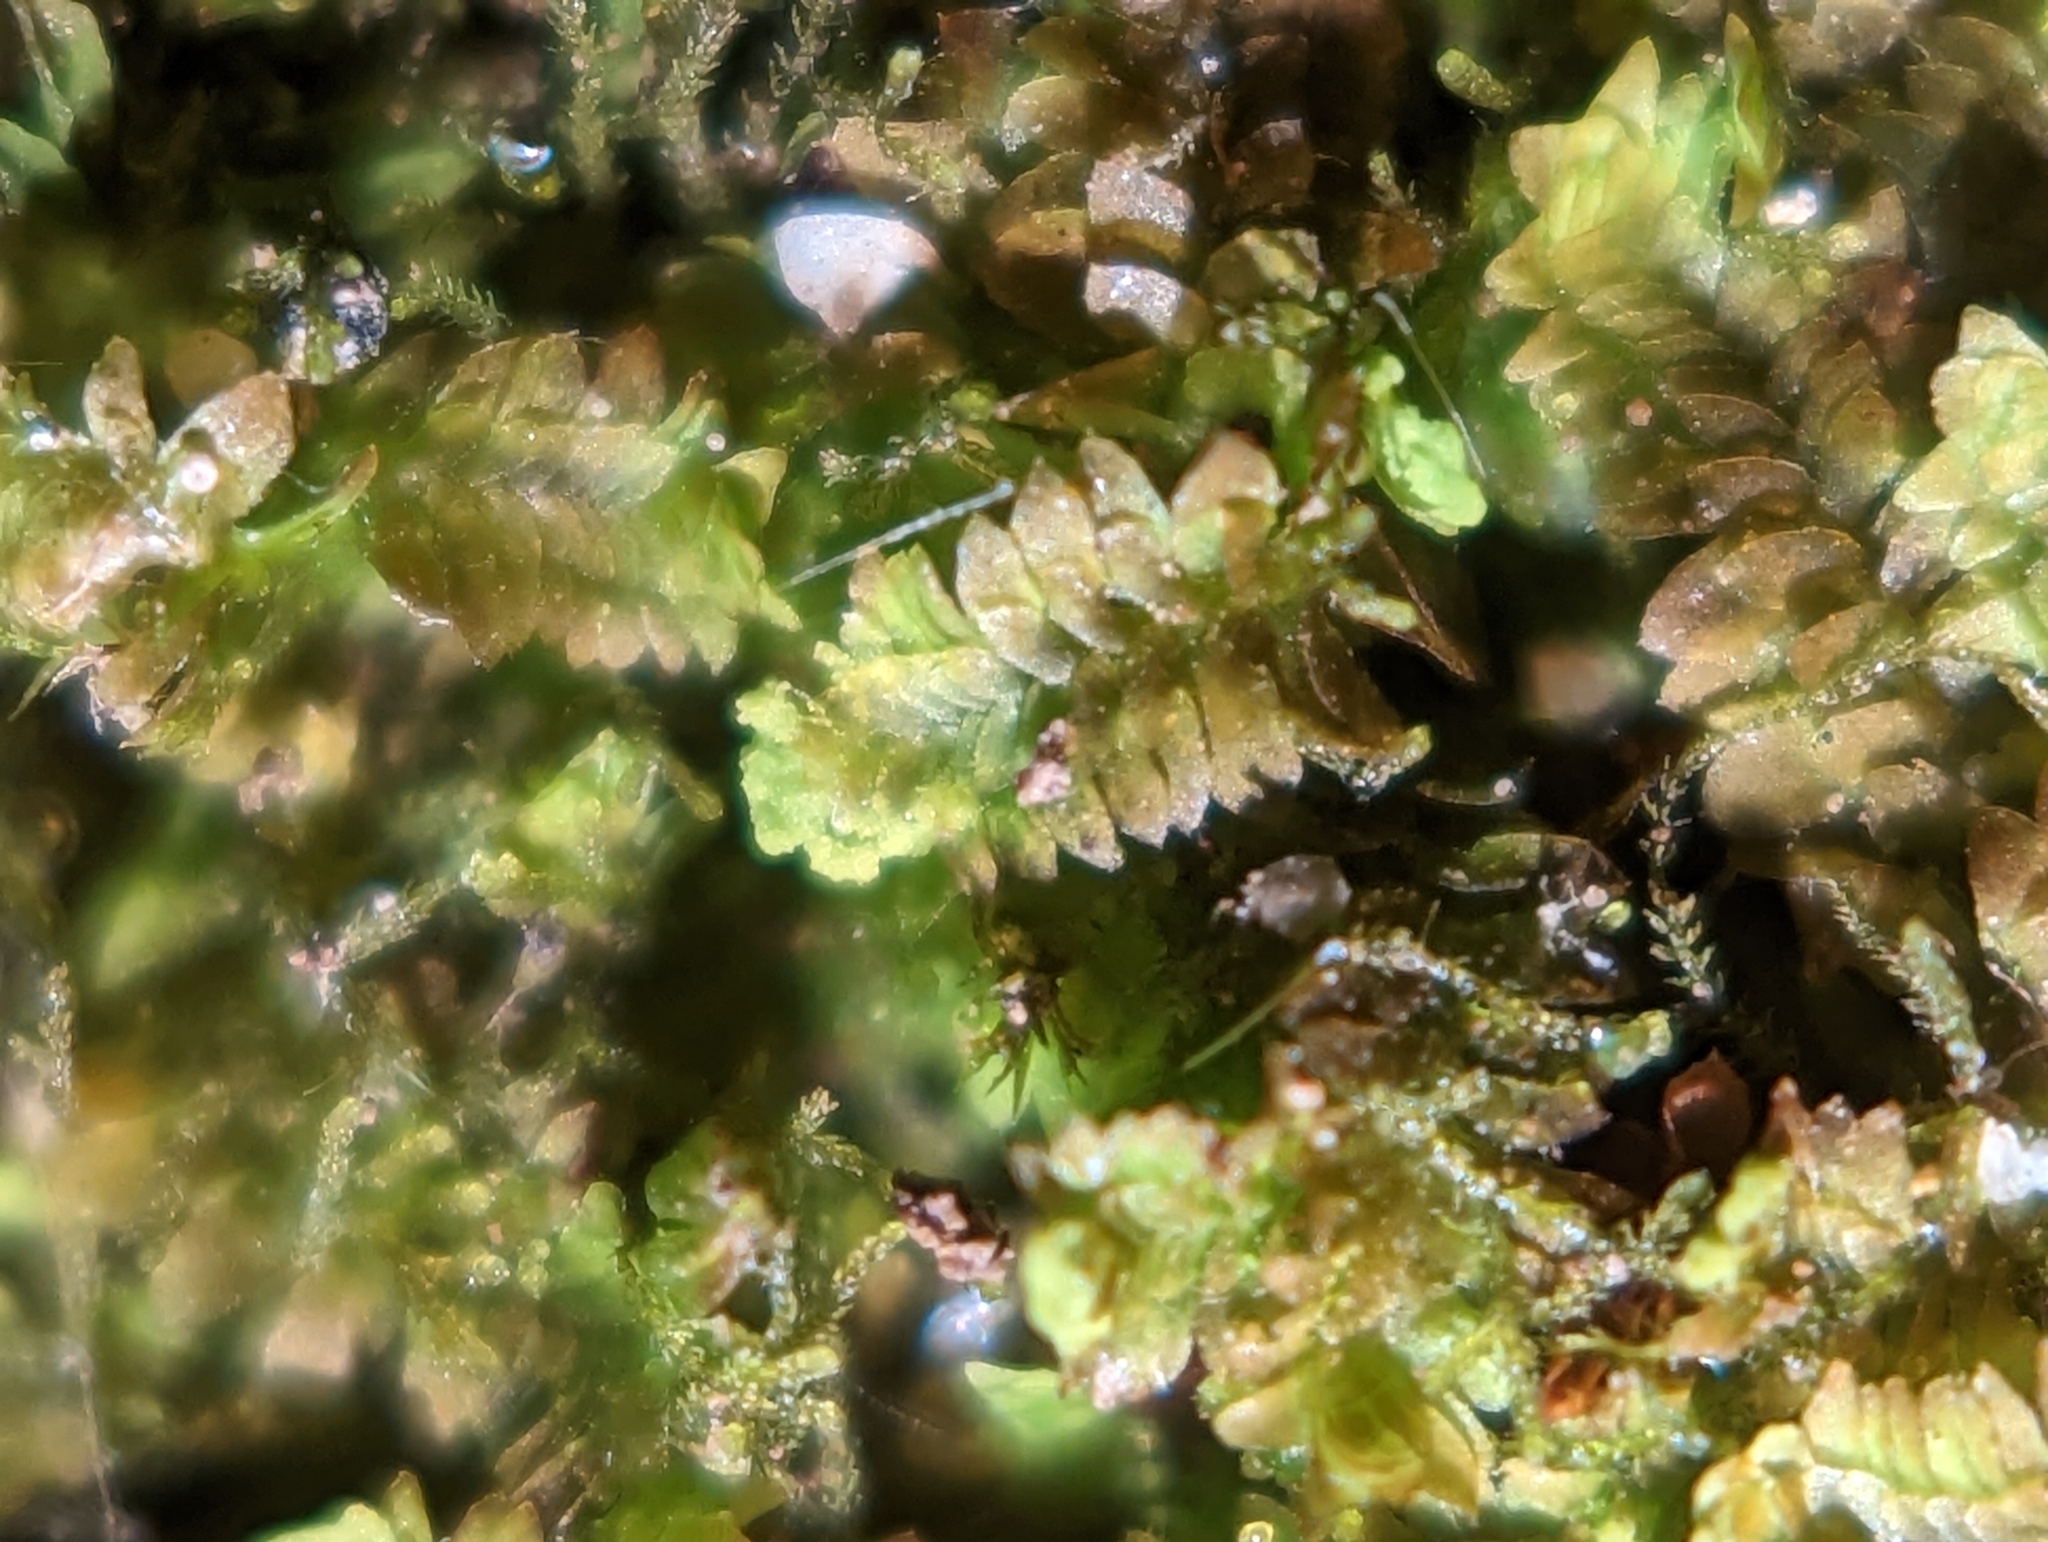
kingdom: Plantae
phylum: Marchantiophyta
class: Jungermanniopsida
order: Jungermanniales
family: Scapaniaceae
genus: Diplophyllum
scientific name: Diplophyllum apiculatum
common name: Sharp-pointed earwort
